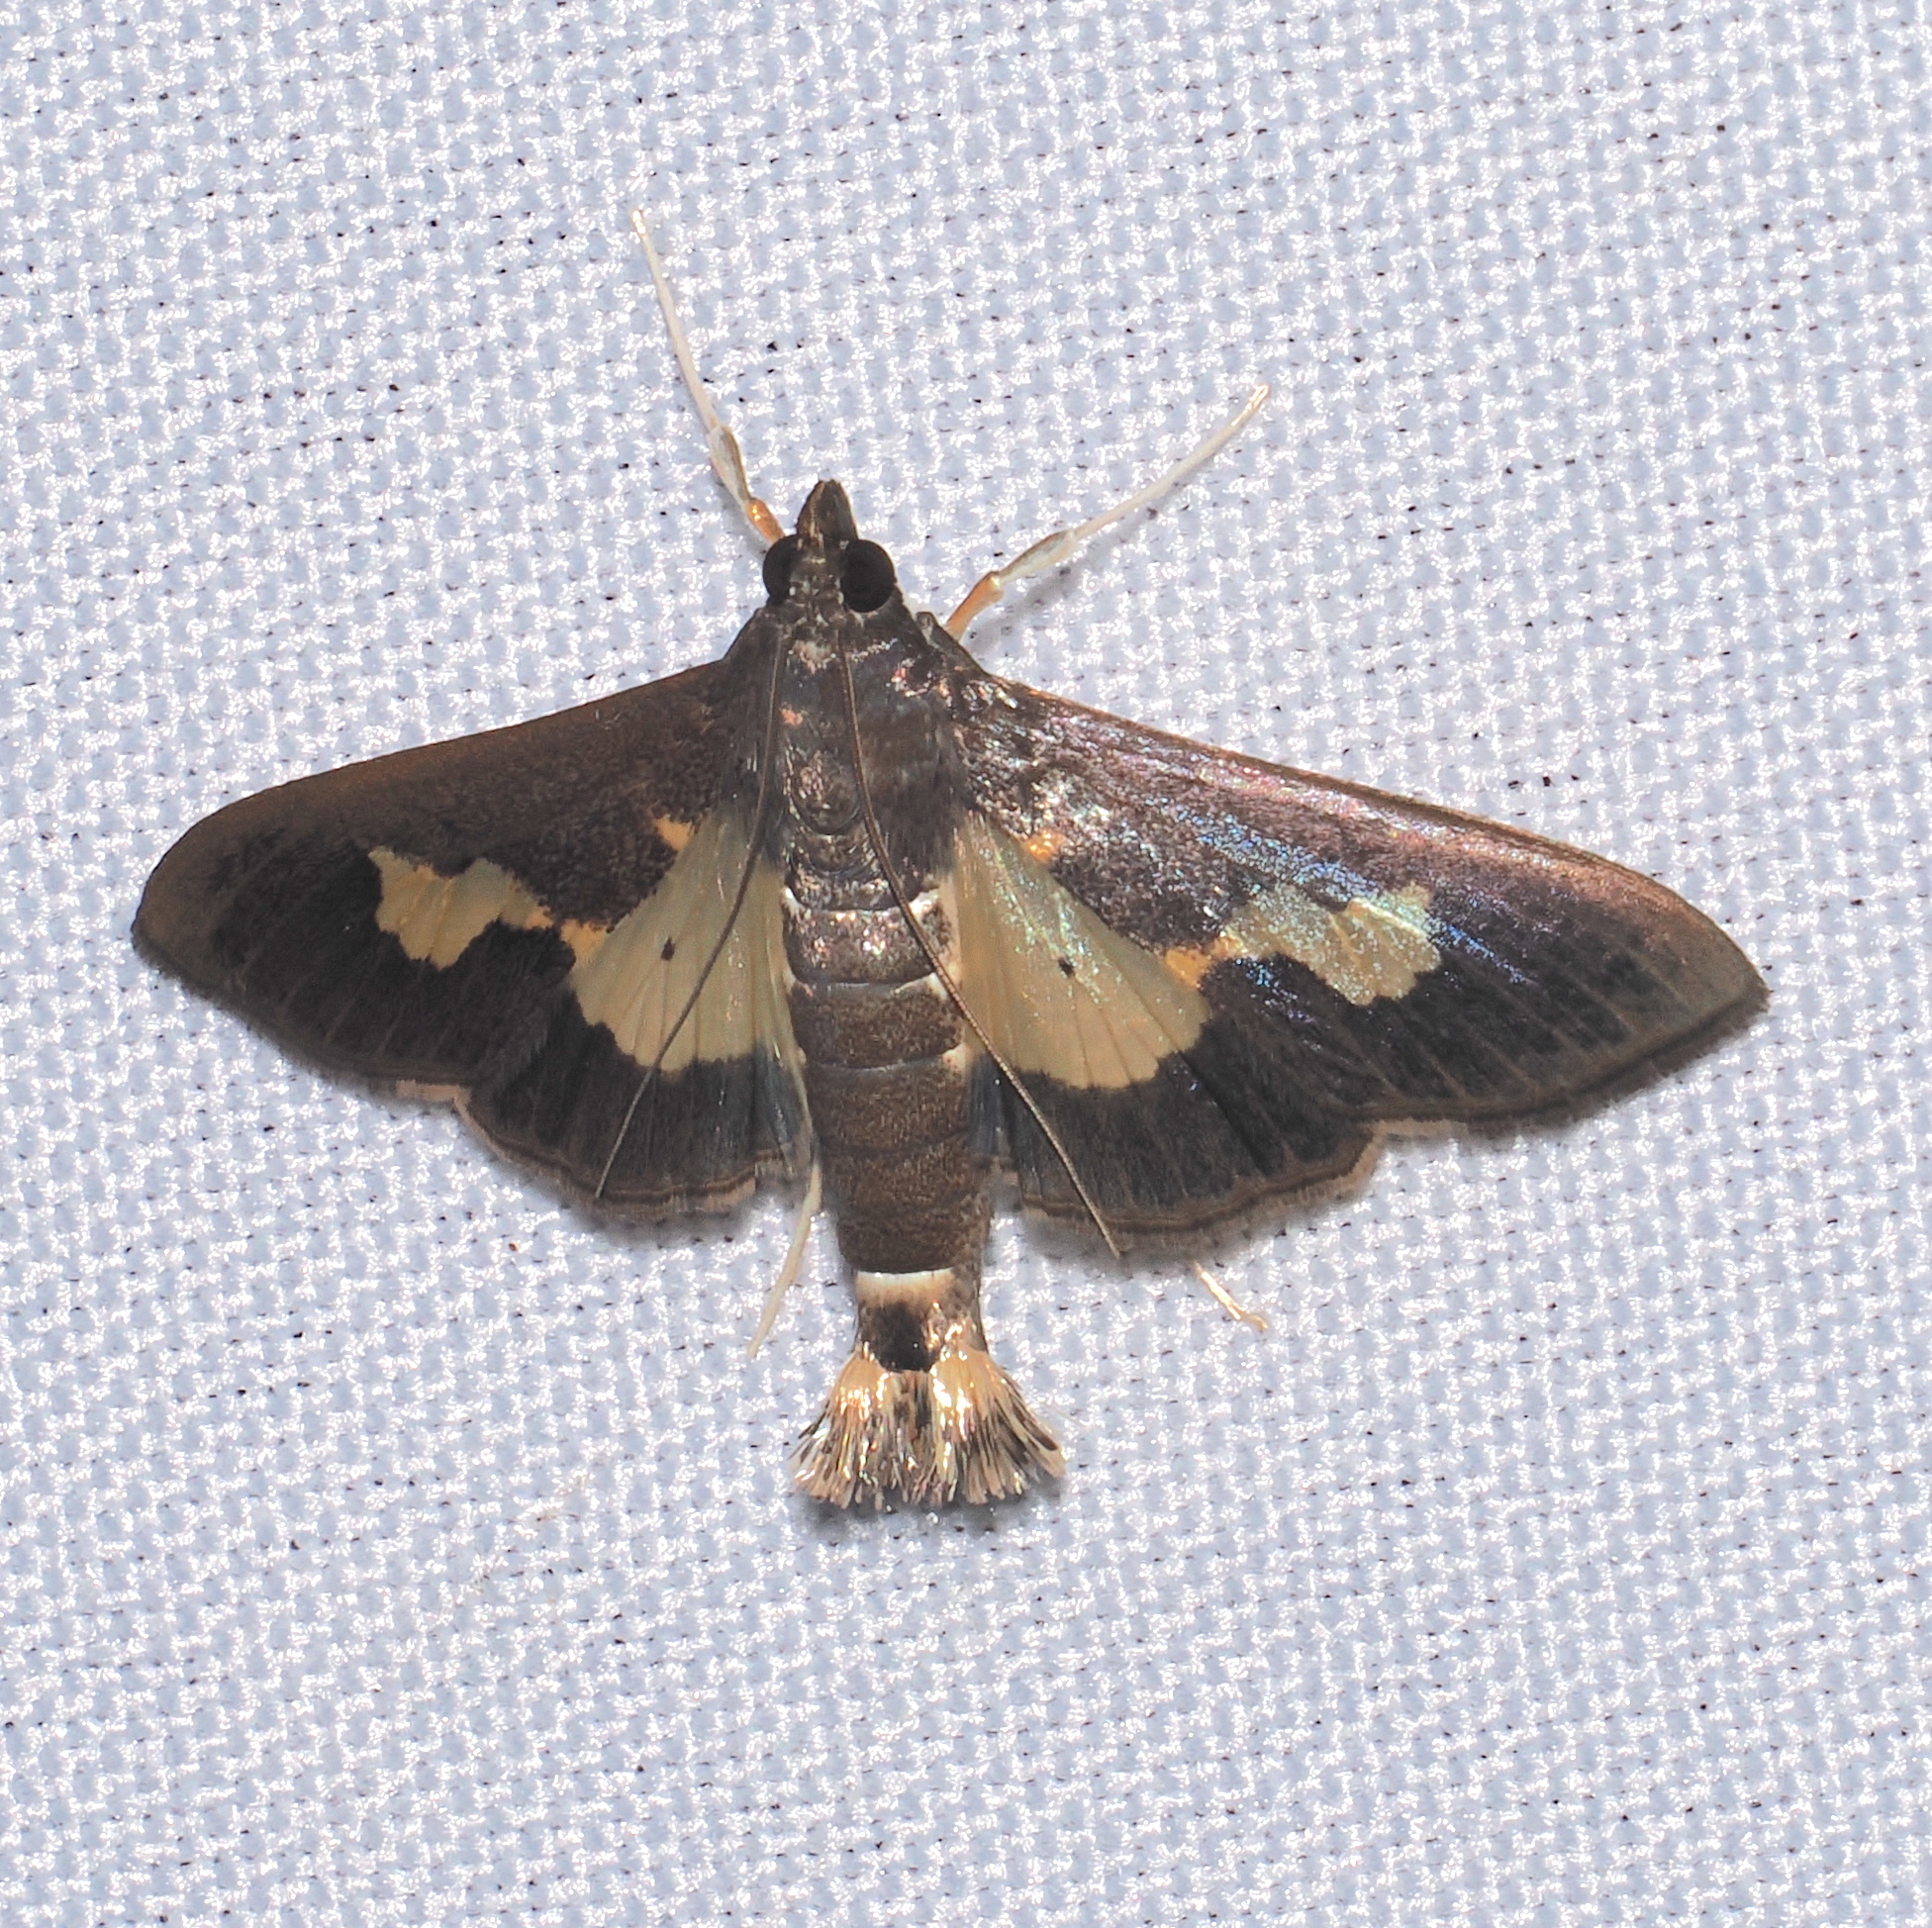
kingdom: Animalia
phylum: Arthropoda
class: Insecta
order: Lepidoptera
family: Crambidae
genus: Cryptographis
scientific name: Cryptographis nitidalis
